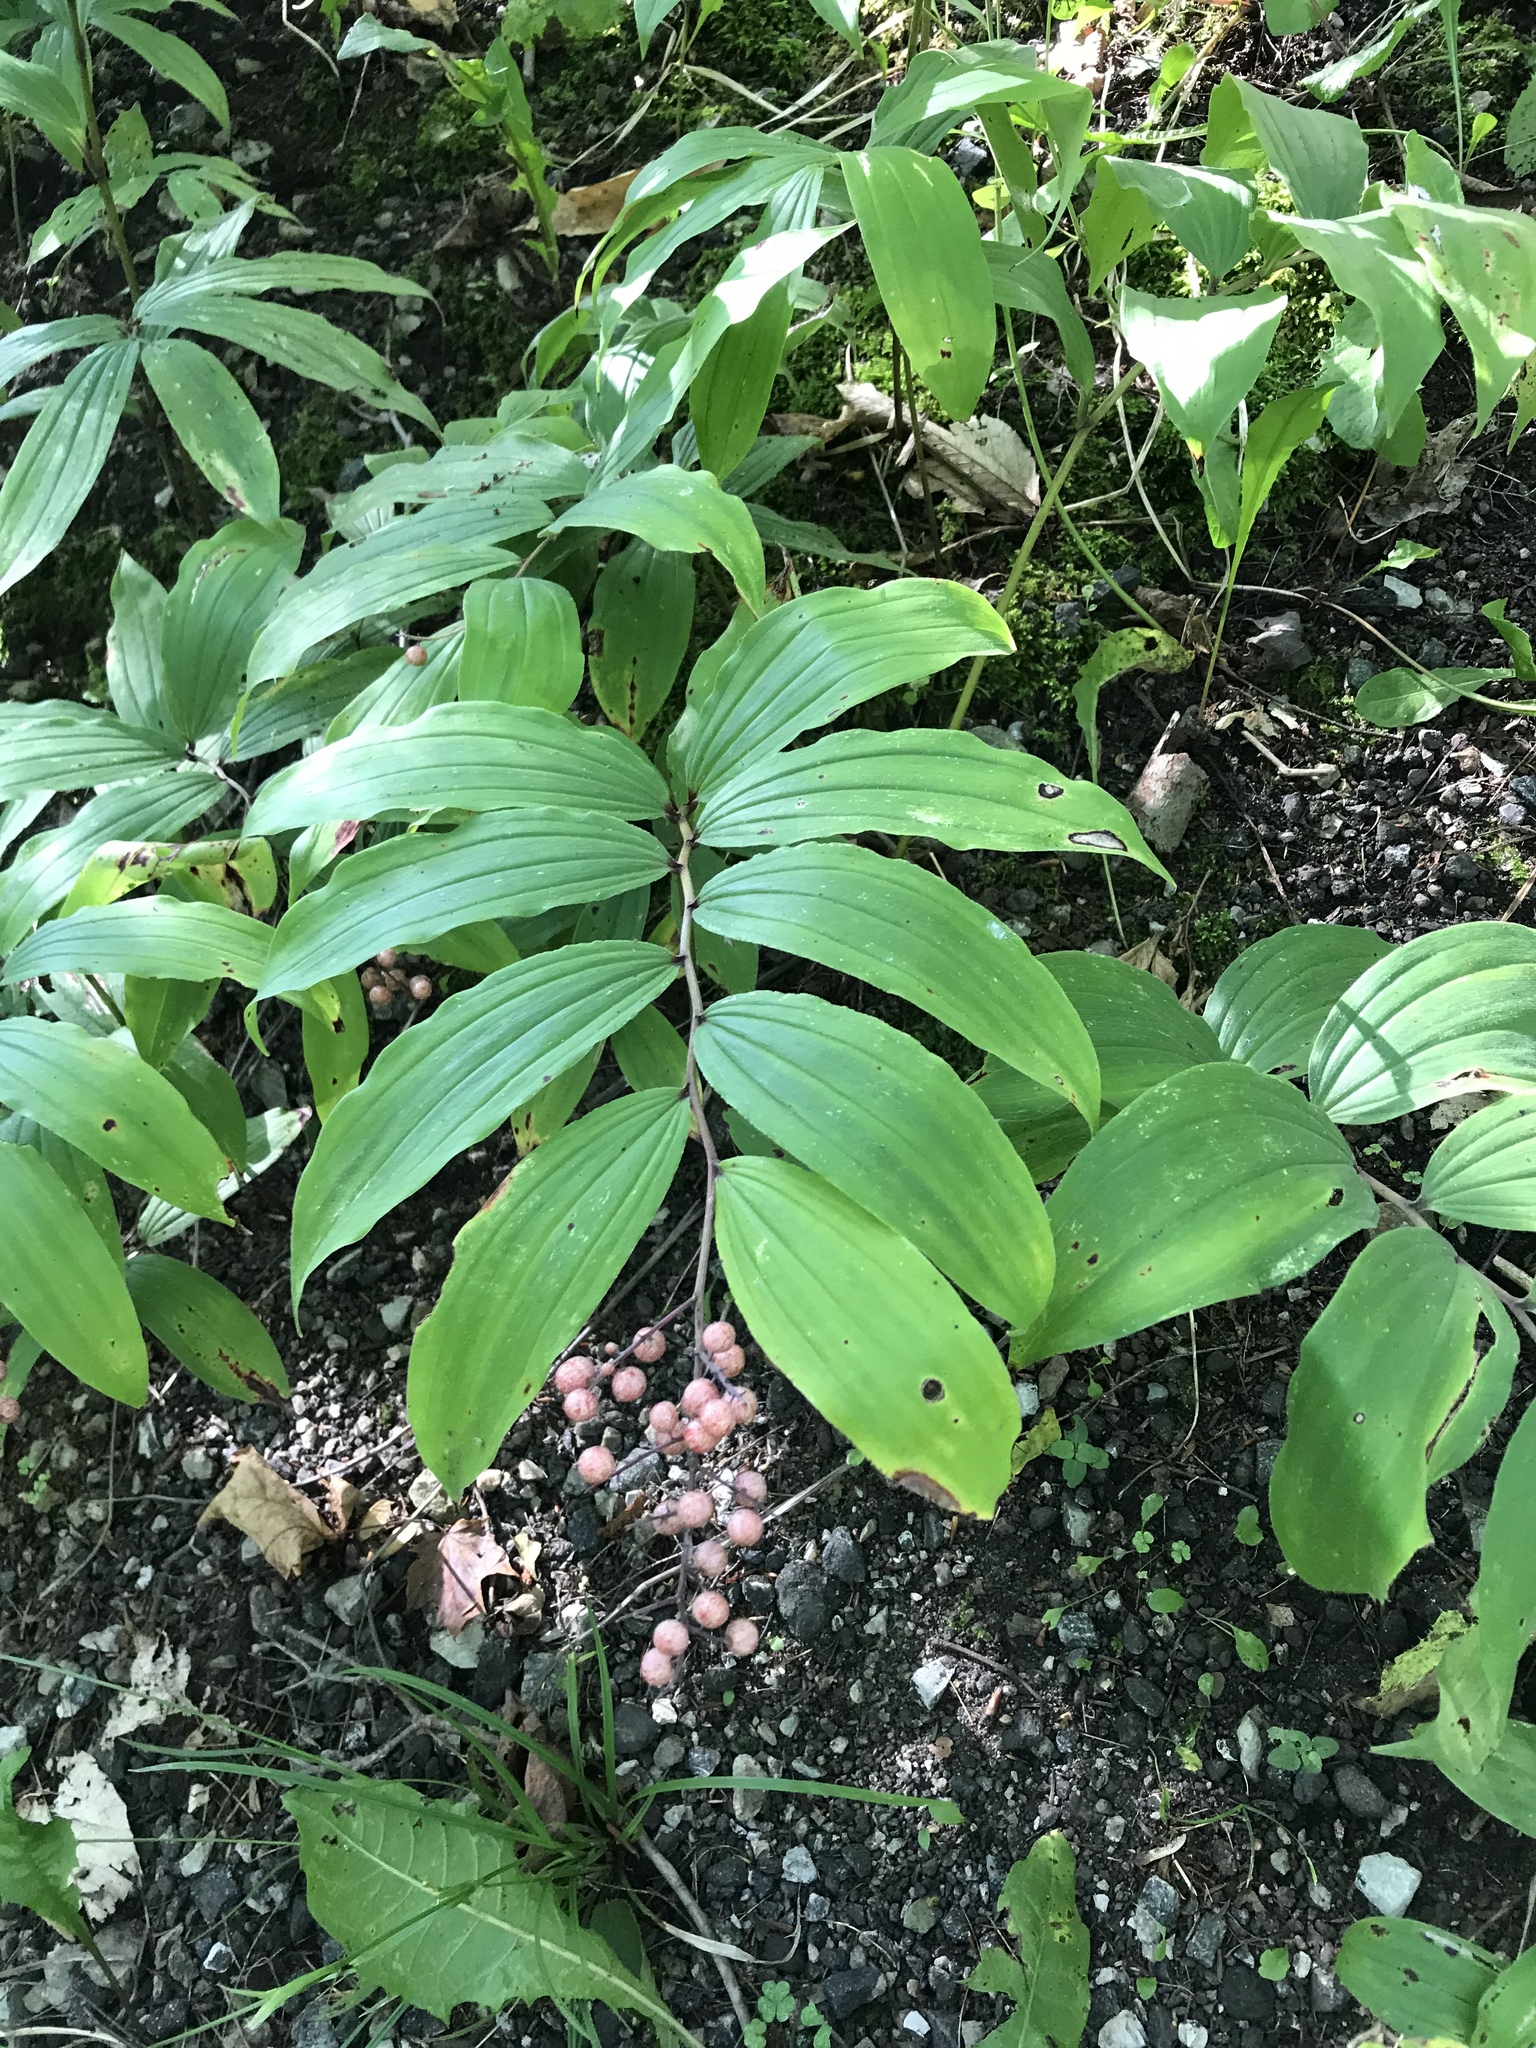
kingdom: Plantae
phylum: Tracheophyta
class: Liliopsida
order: Asparagales
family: Asparagaceae
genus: Maianthemum
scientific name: Maianthemum racemosum
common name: False spikenard
